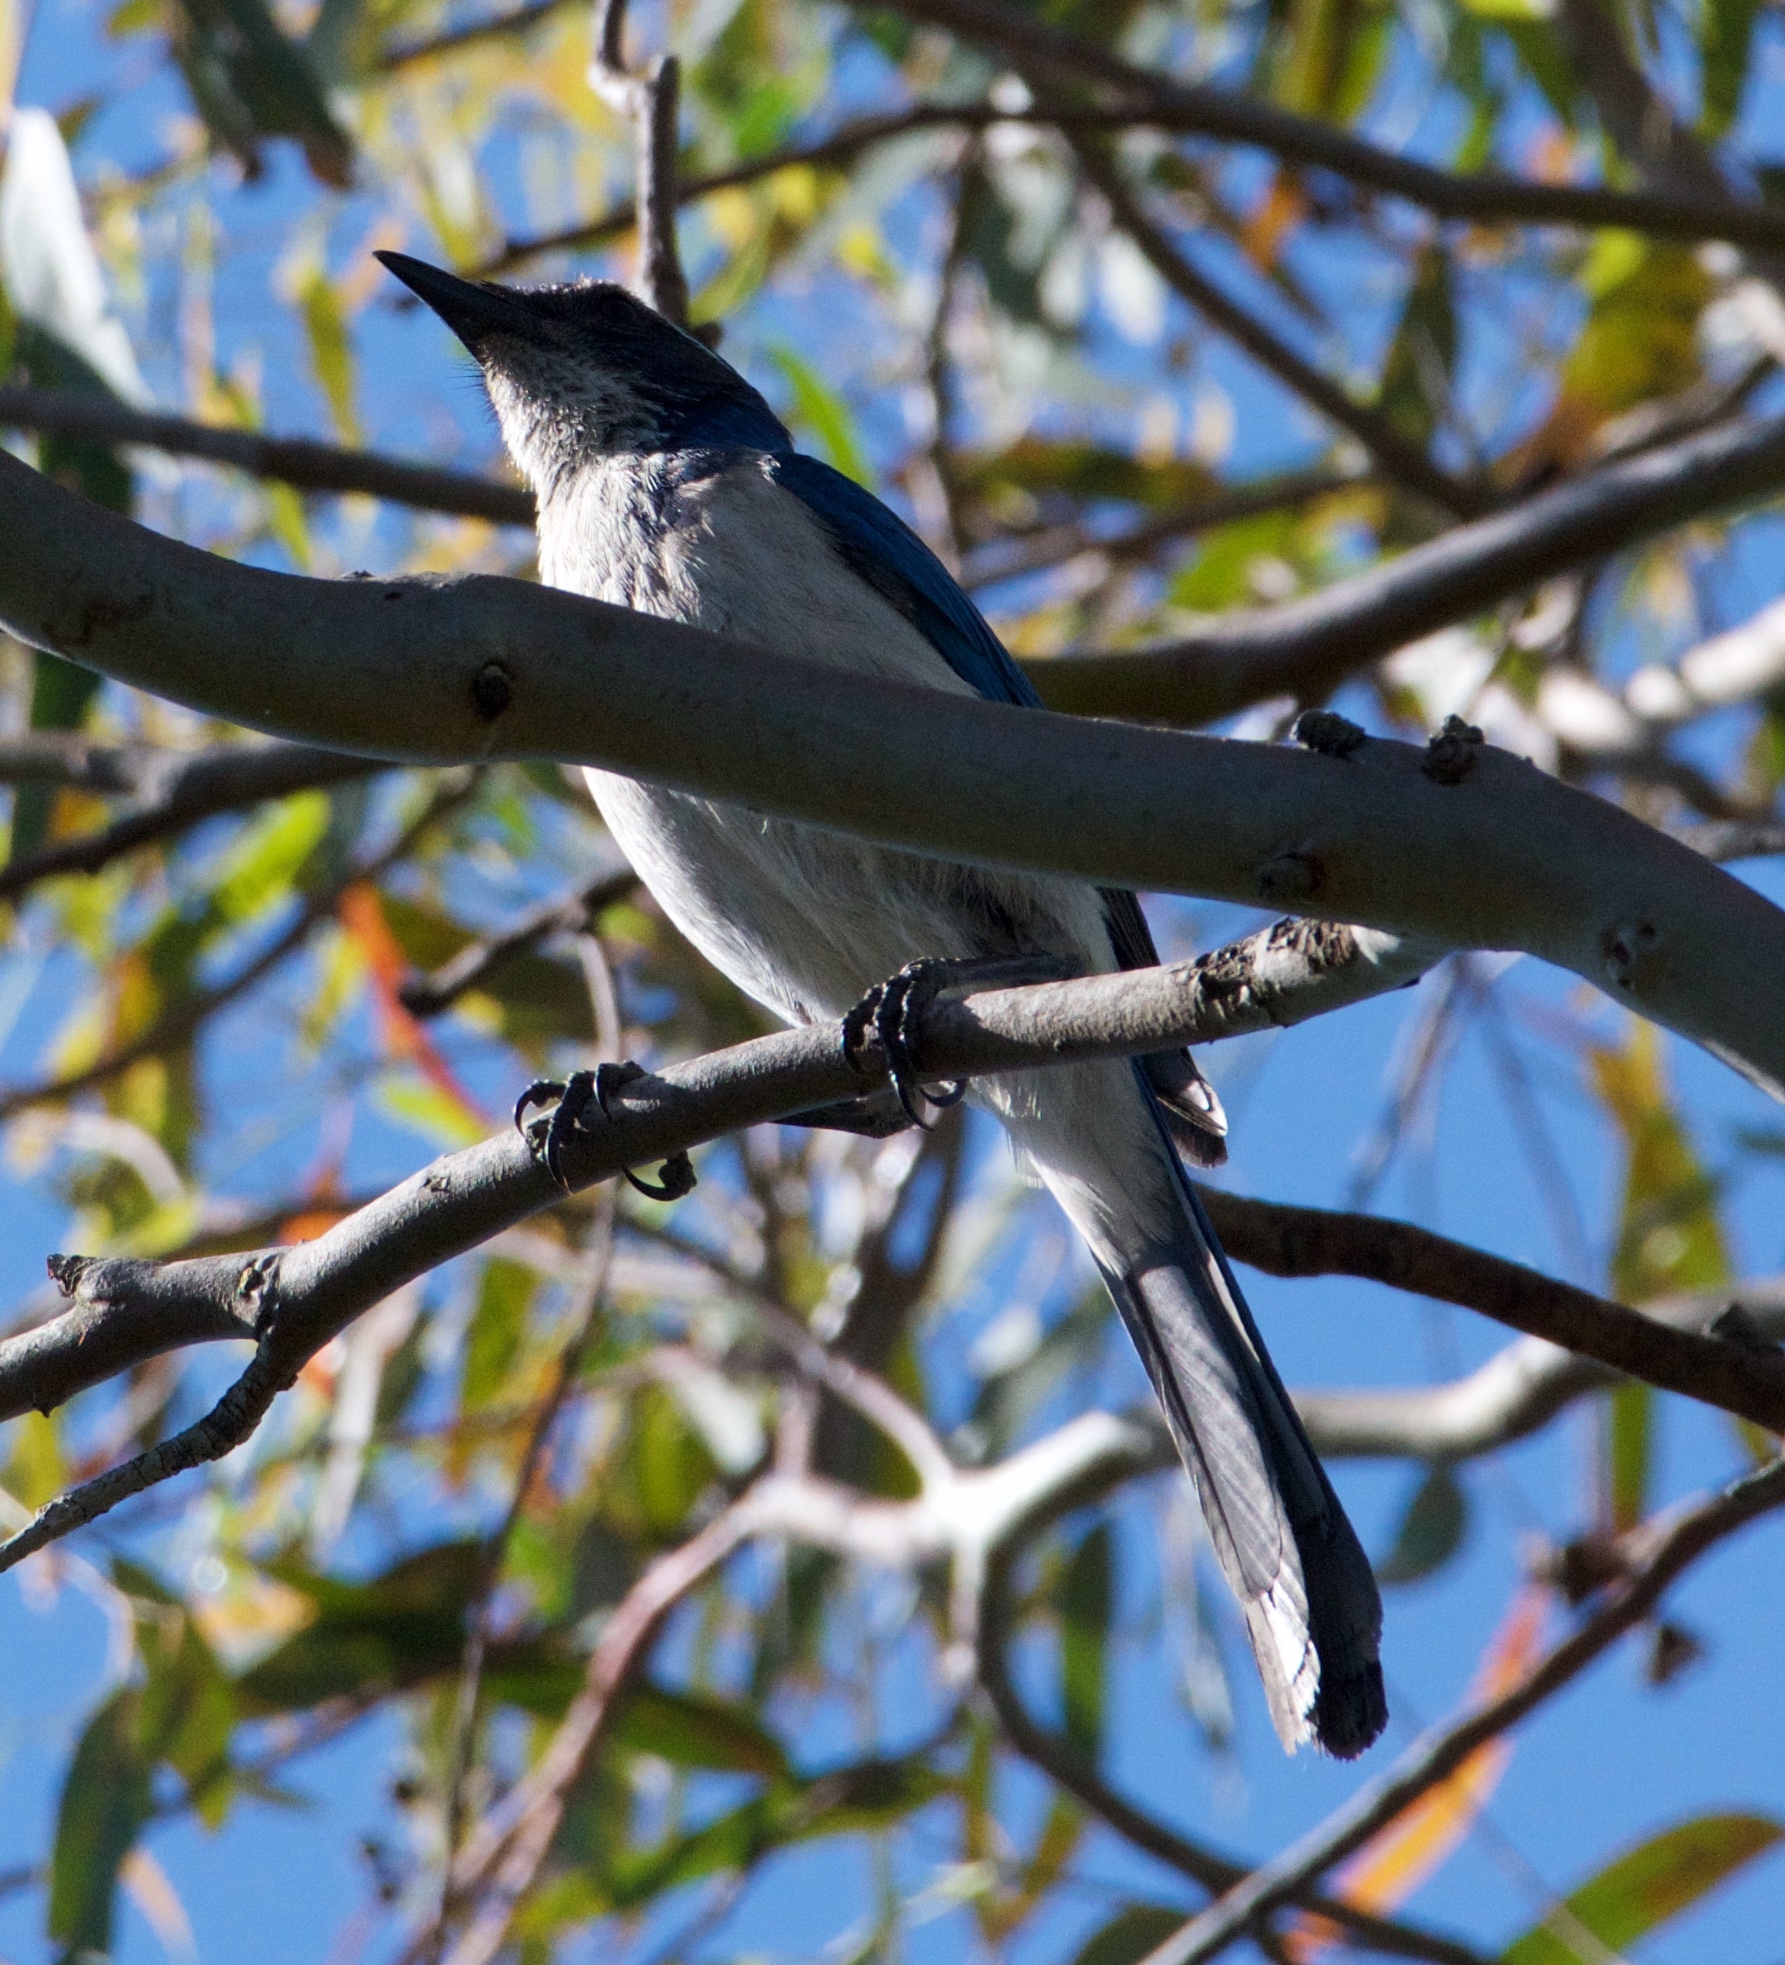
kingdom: Animalia
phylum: Chordata
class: Aves
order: Passeriformes
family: Corvidae
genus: Aphelocoma
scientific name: Aphelocoma californica
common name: California scrub-jay
